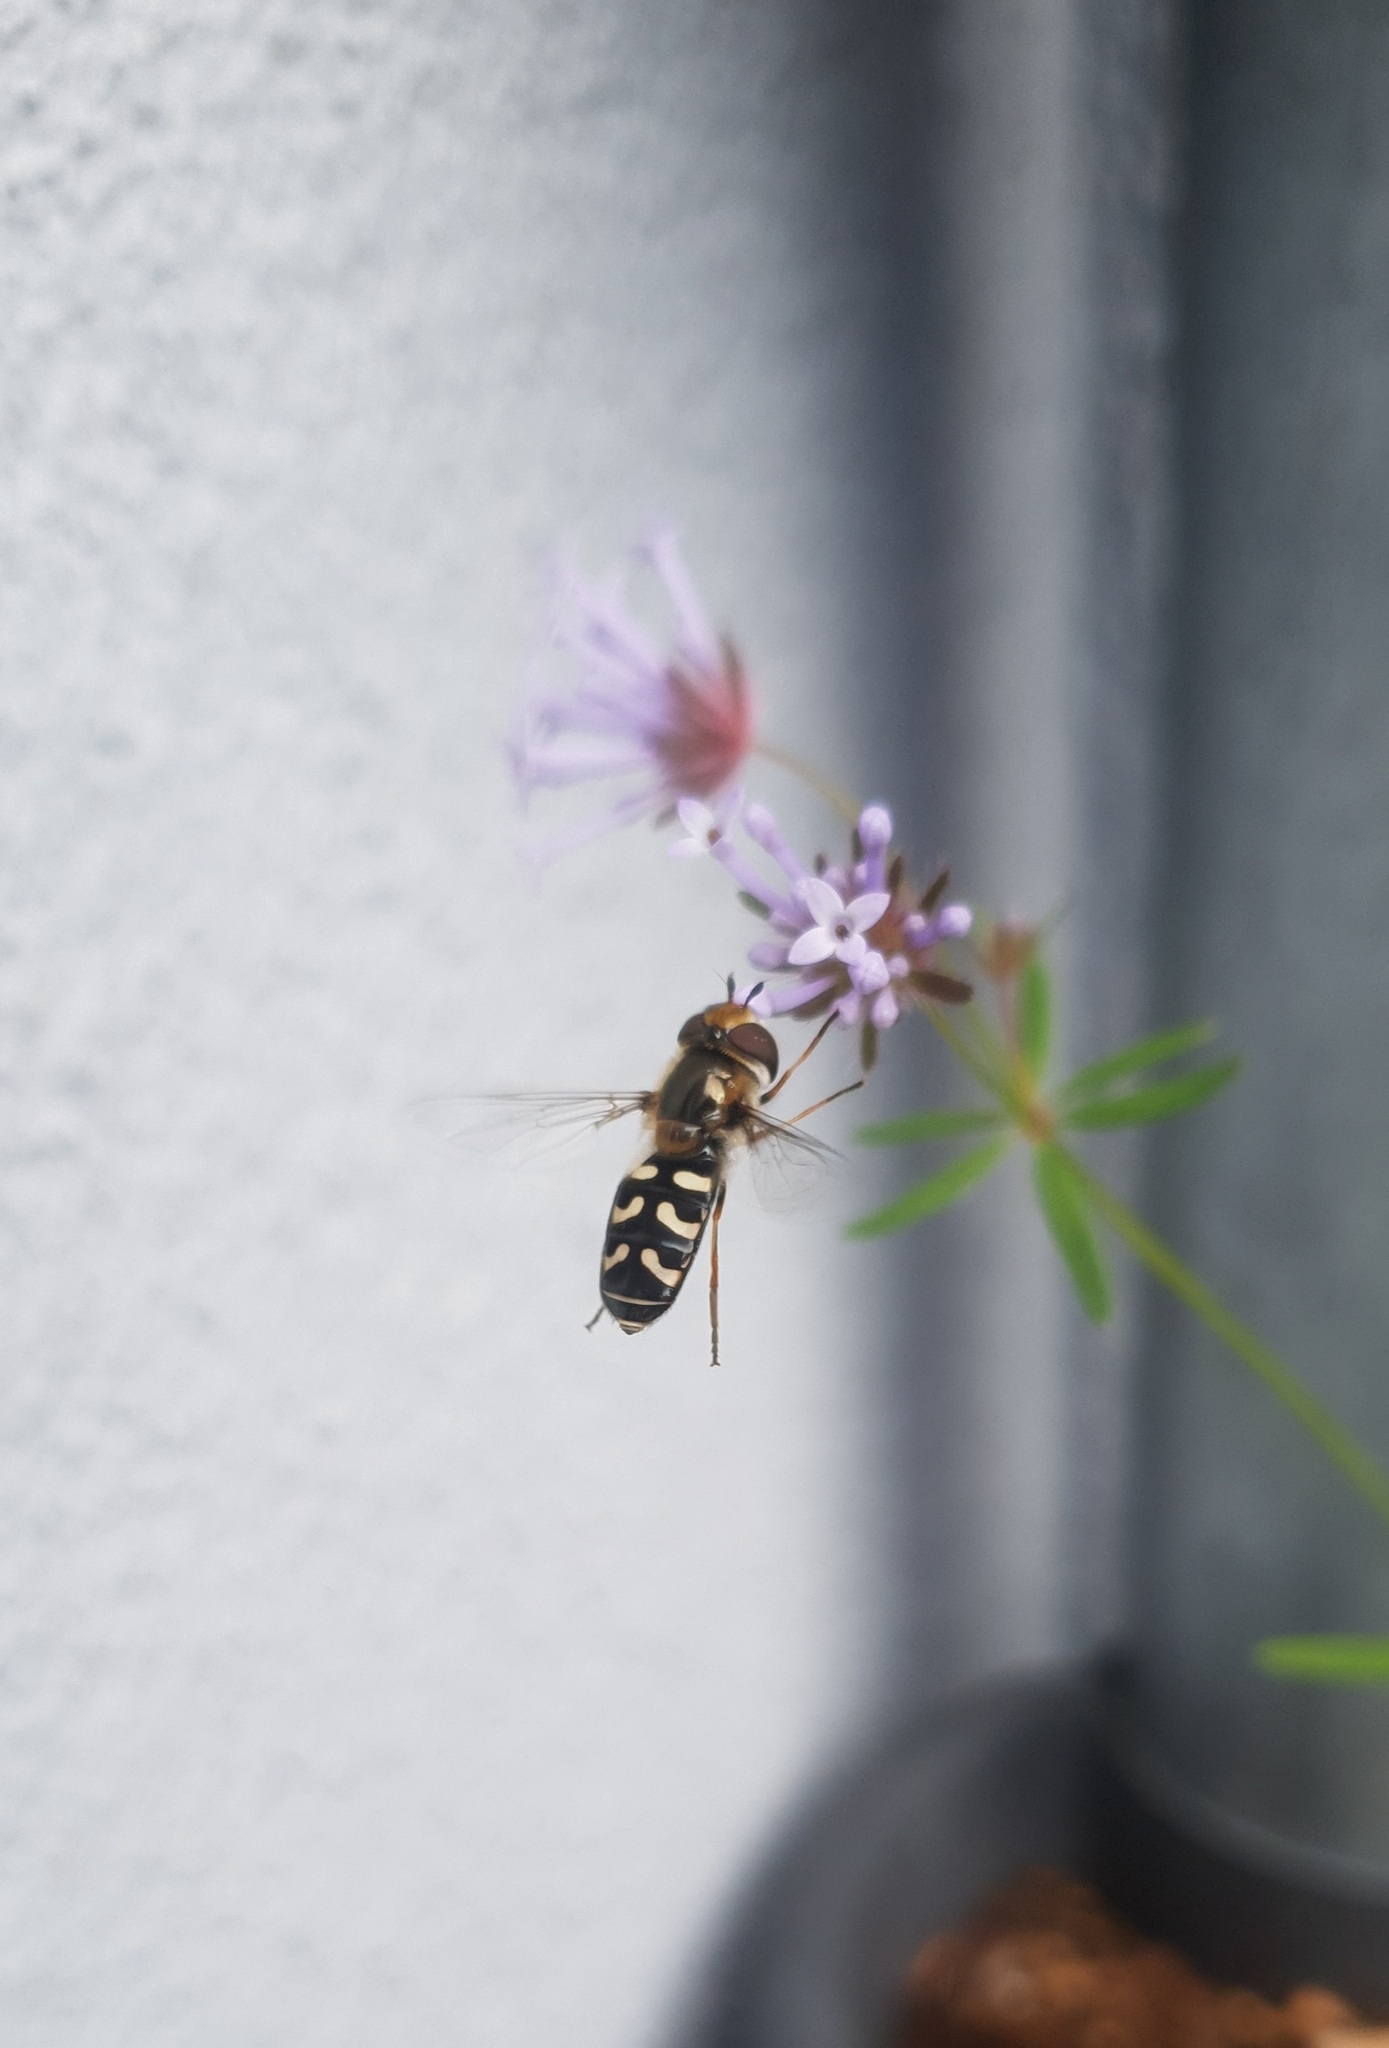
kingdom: Animalia
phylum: Arthropoda
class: Insecta
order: Diptera
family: Syrphidae
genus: Scaeva
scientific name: Scaeva pyrastri
